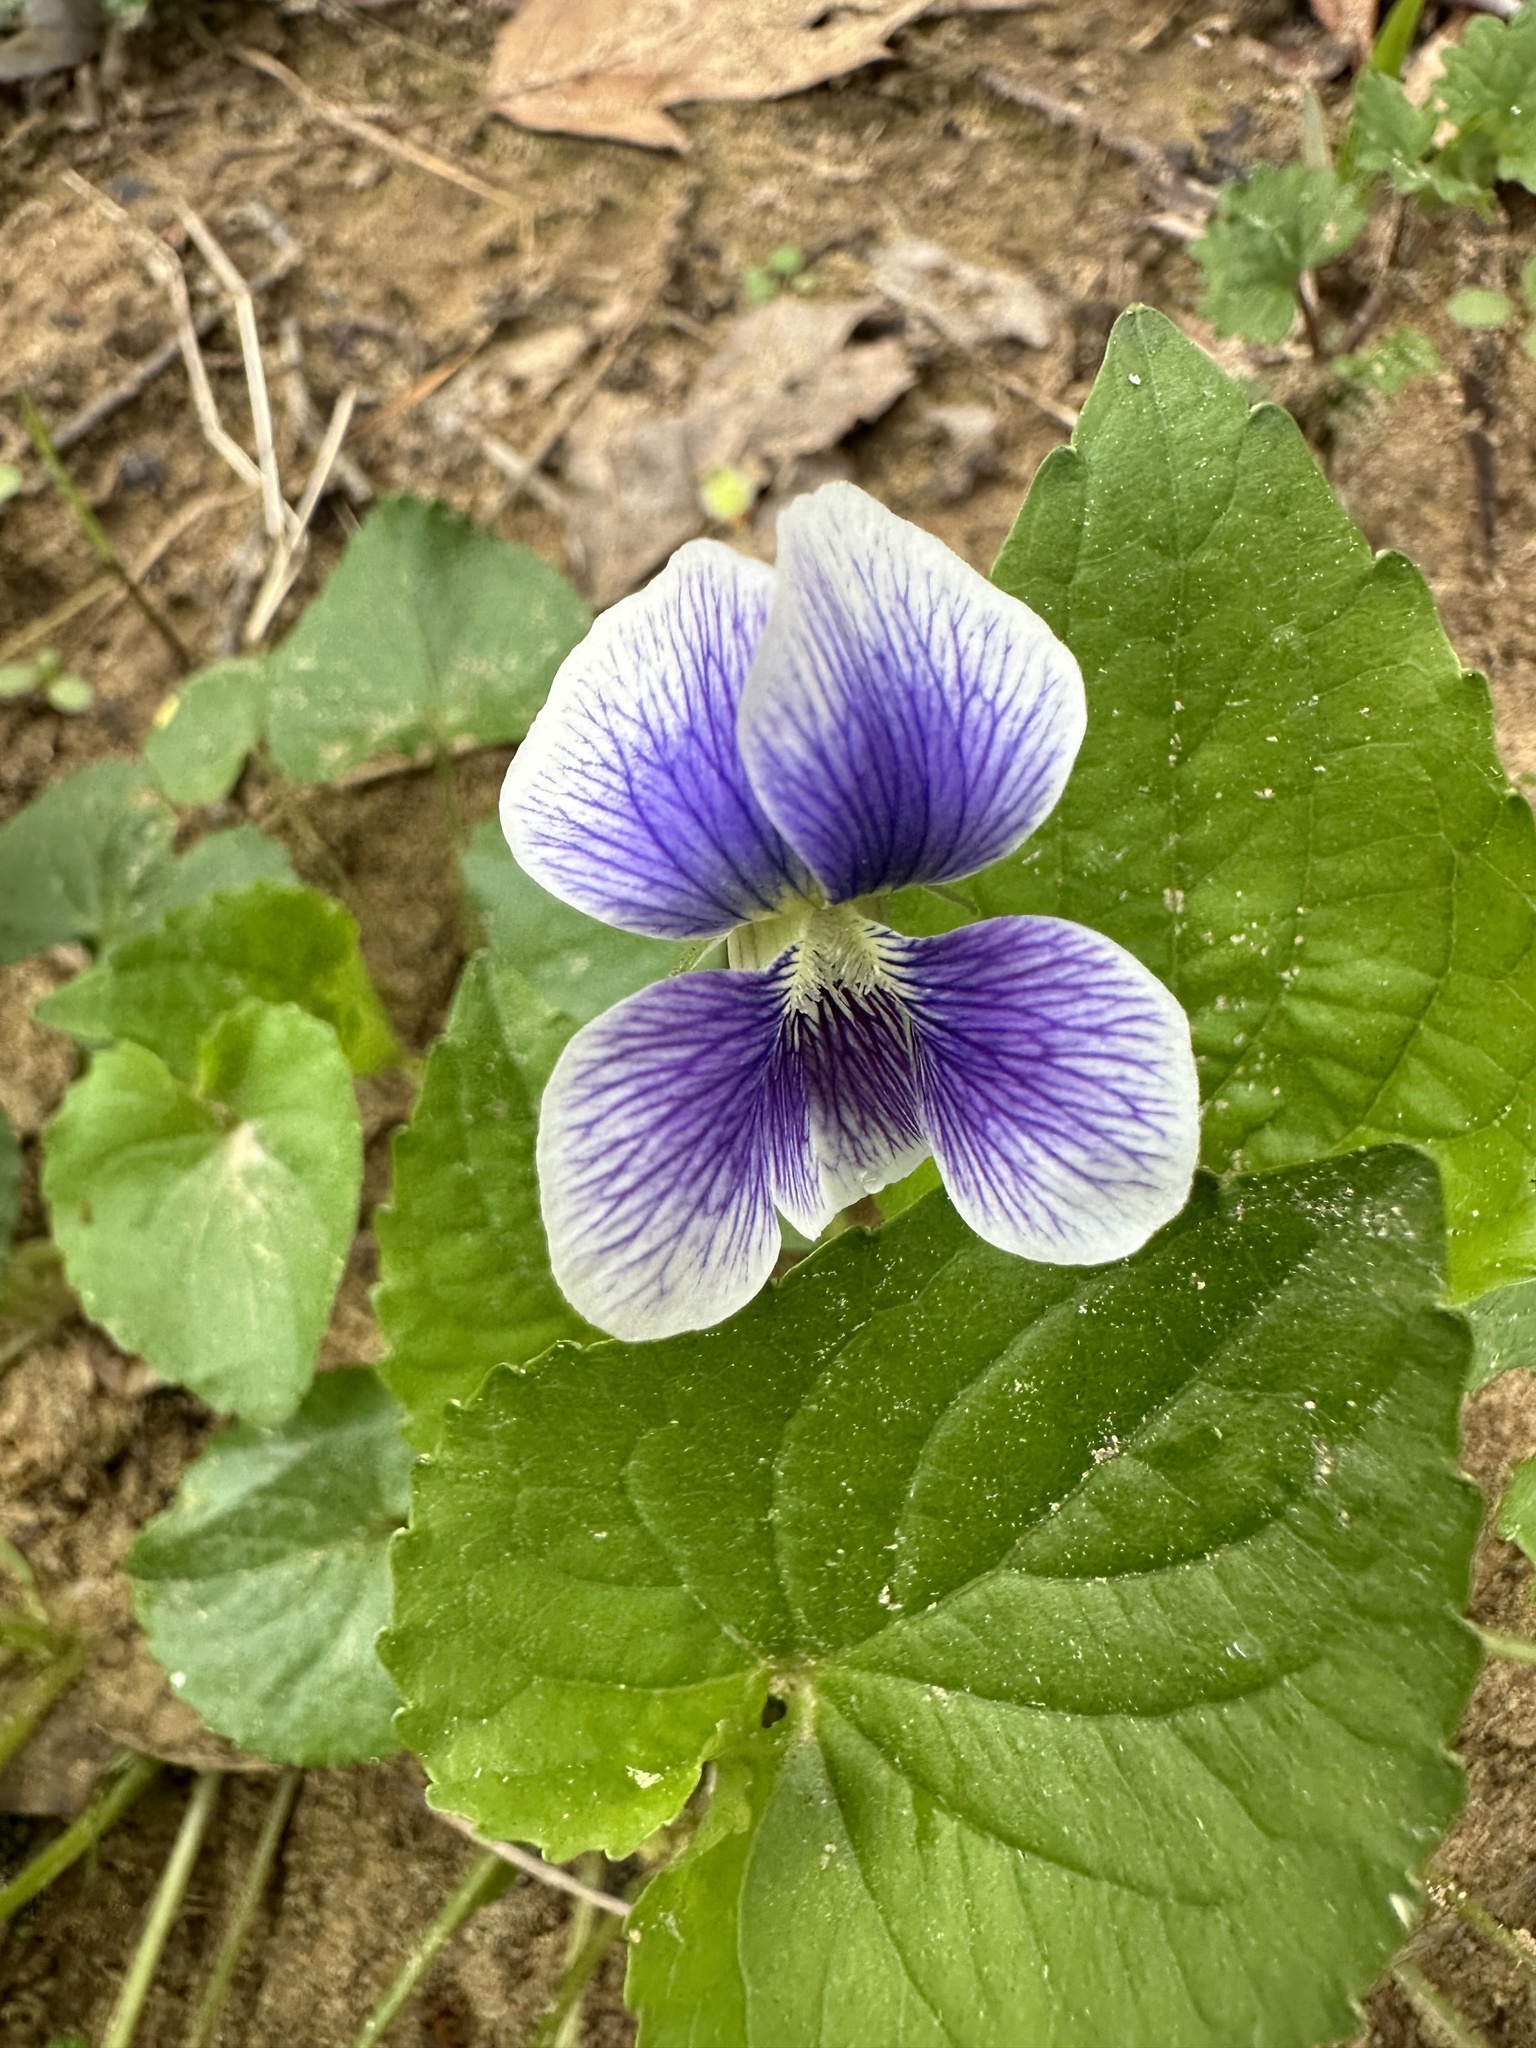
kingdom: Plantae
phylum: Tracheophyta
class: Magnoliopsida
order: Malpighiales
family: Violaceae
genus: Viola
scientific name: Viola sororia
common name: Dooryard violet
